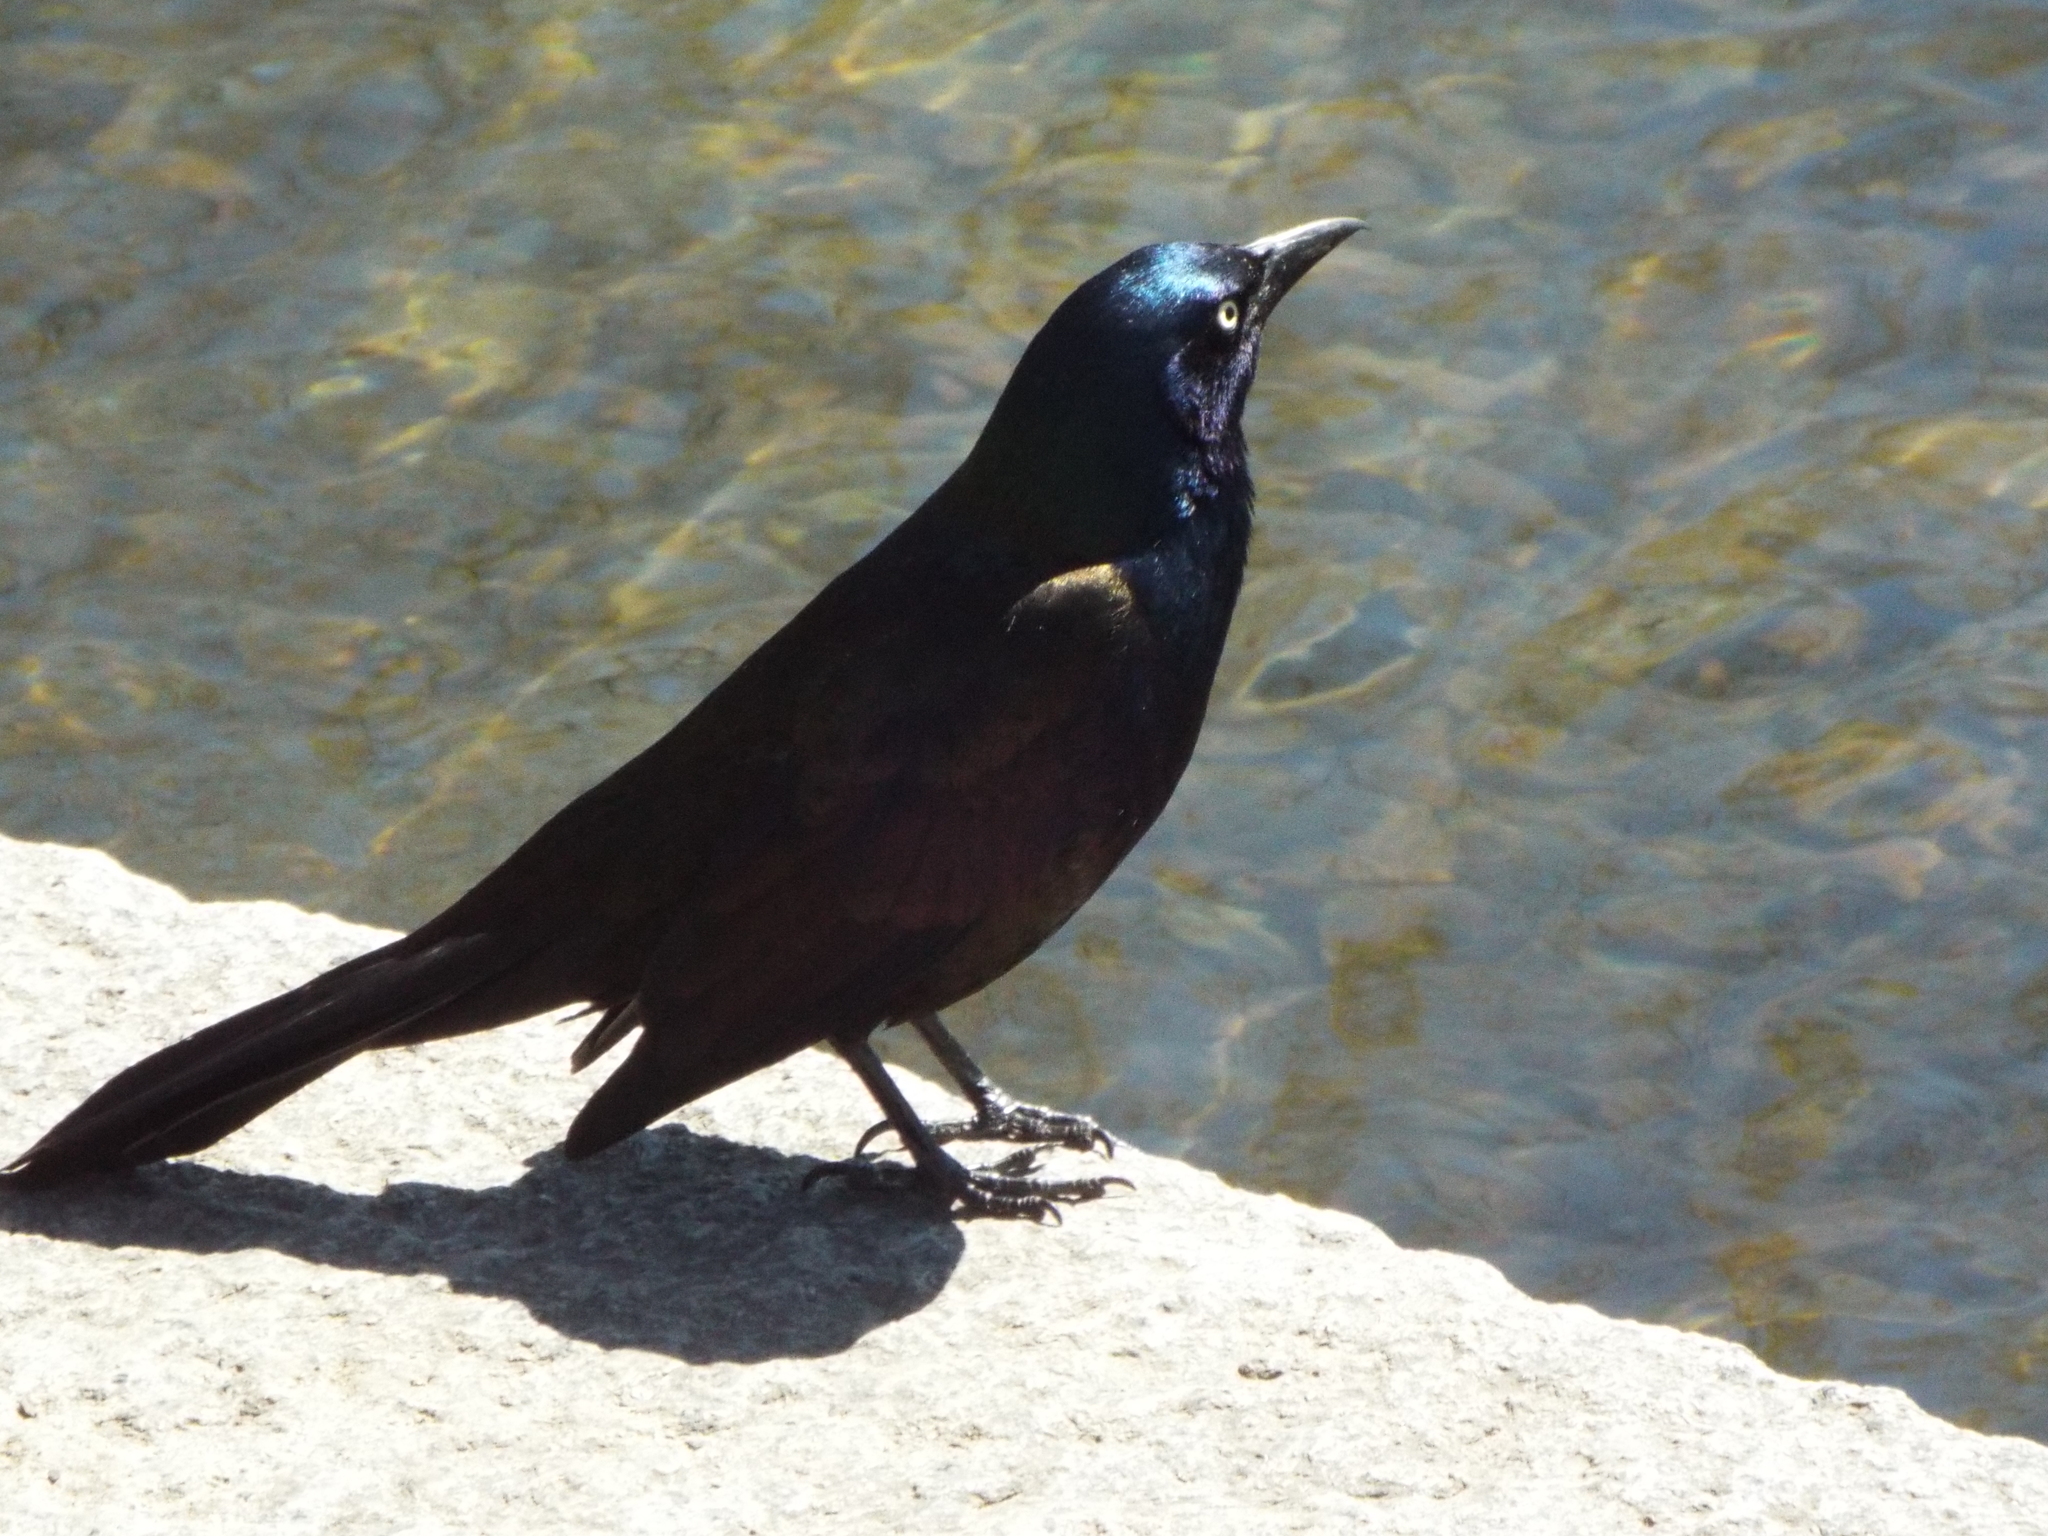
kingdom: Animalia
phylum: Chordata
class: Aves
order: Passeriformes
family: Icteridae
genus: Quiscalus
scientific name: Quiscalus quiscula
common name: Common grackle
